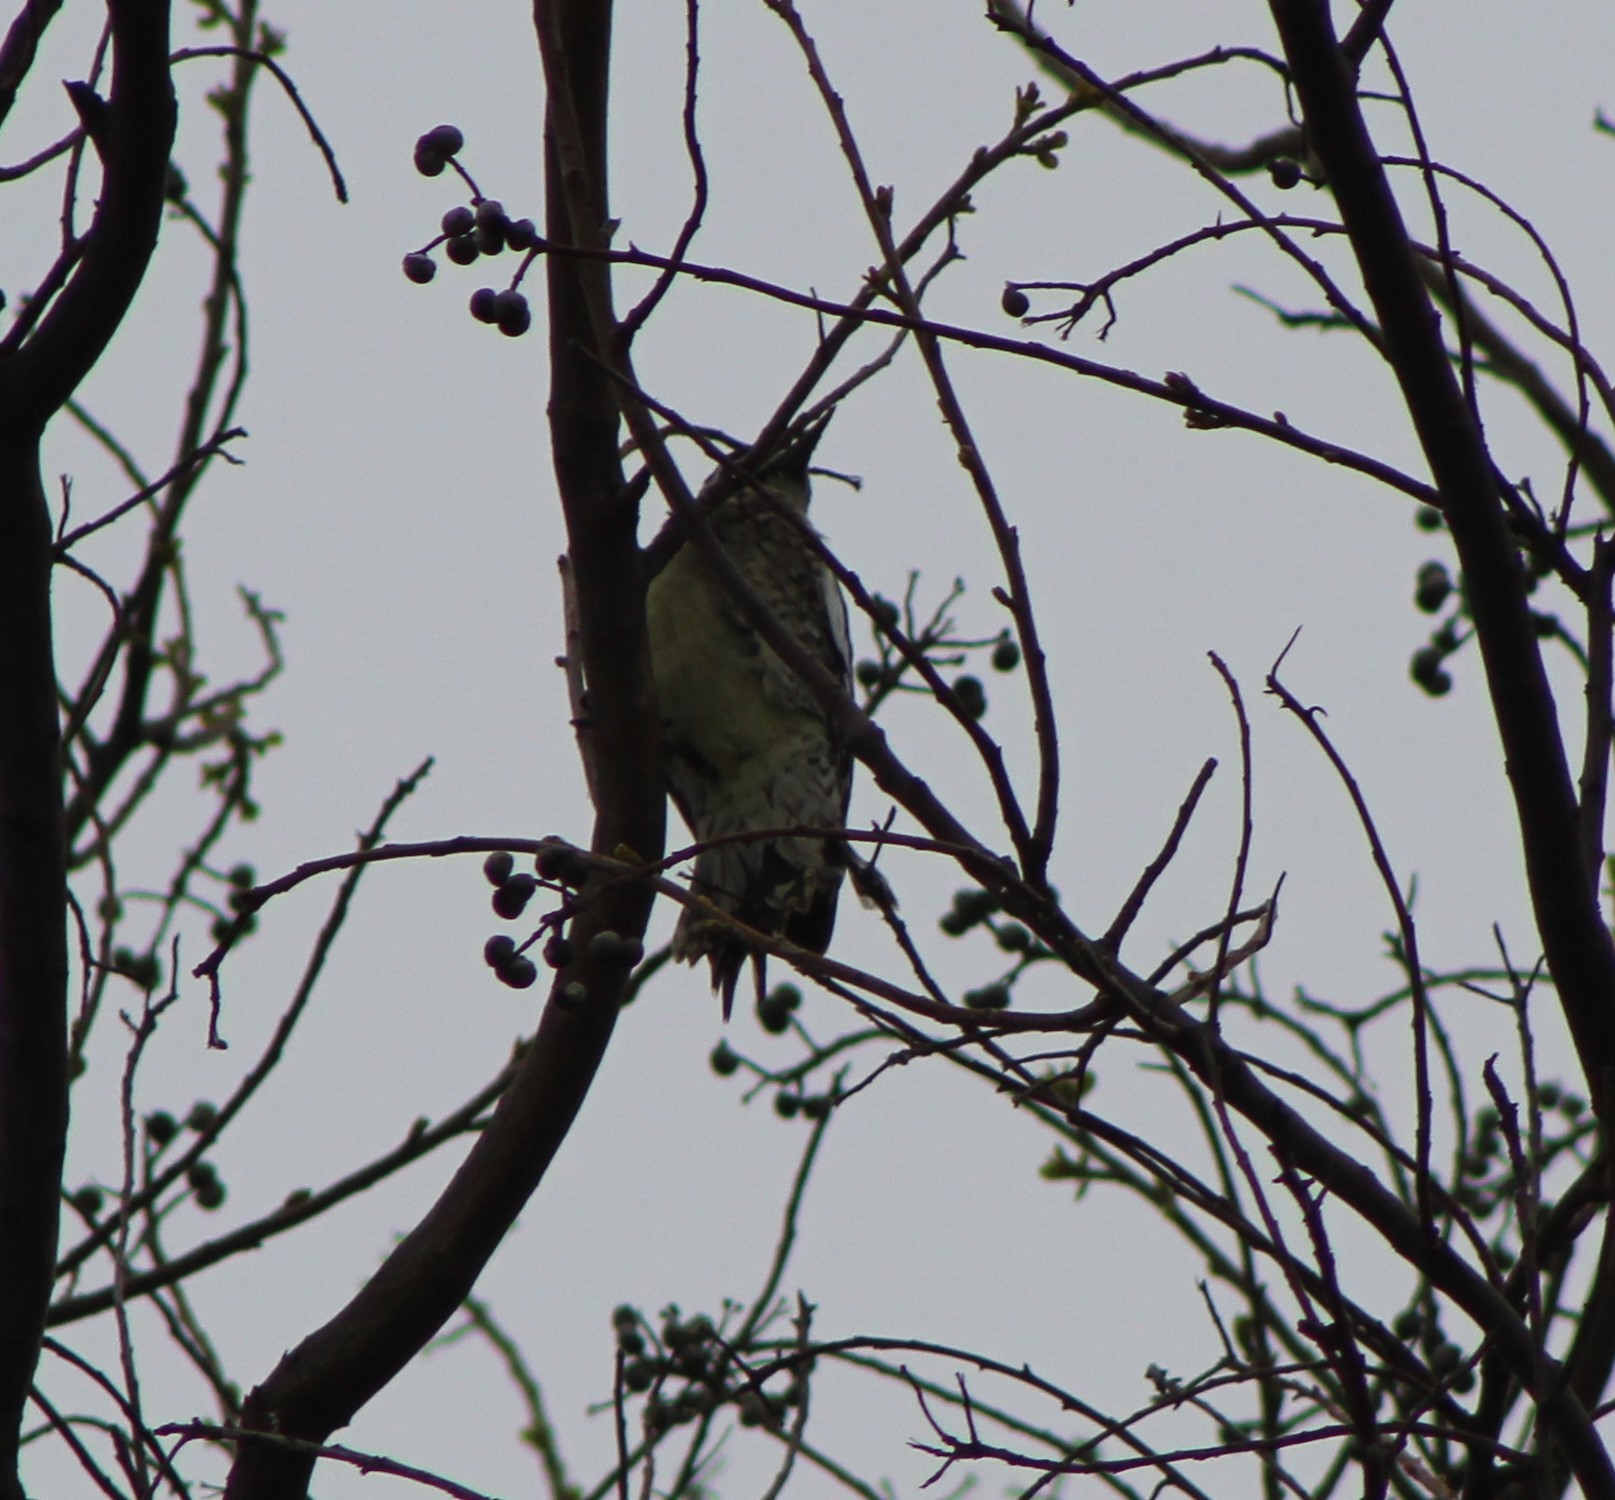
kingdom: Animalia
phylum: Chordata
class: Aves
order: Piciformes
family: Picidae
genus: Sphyrapicus
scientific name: Sphyrapicus varius
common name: Yellow-bellied sapsucker
